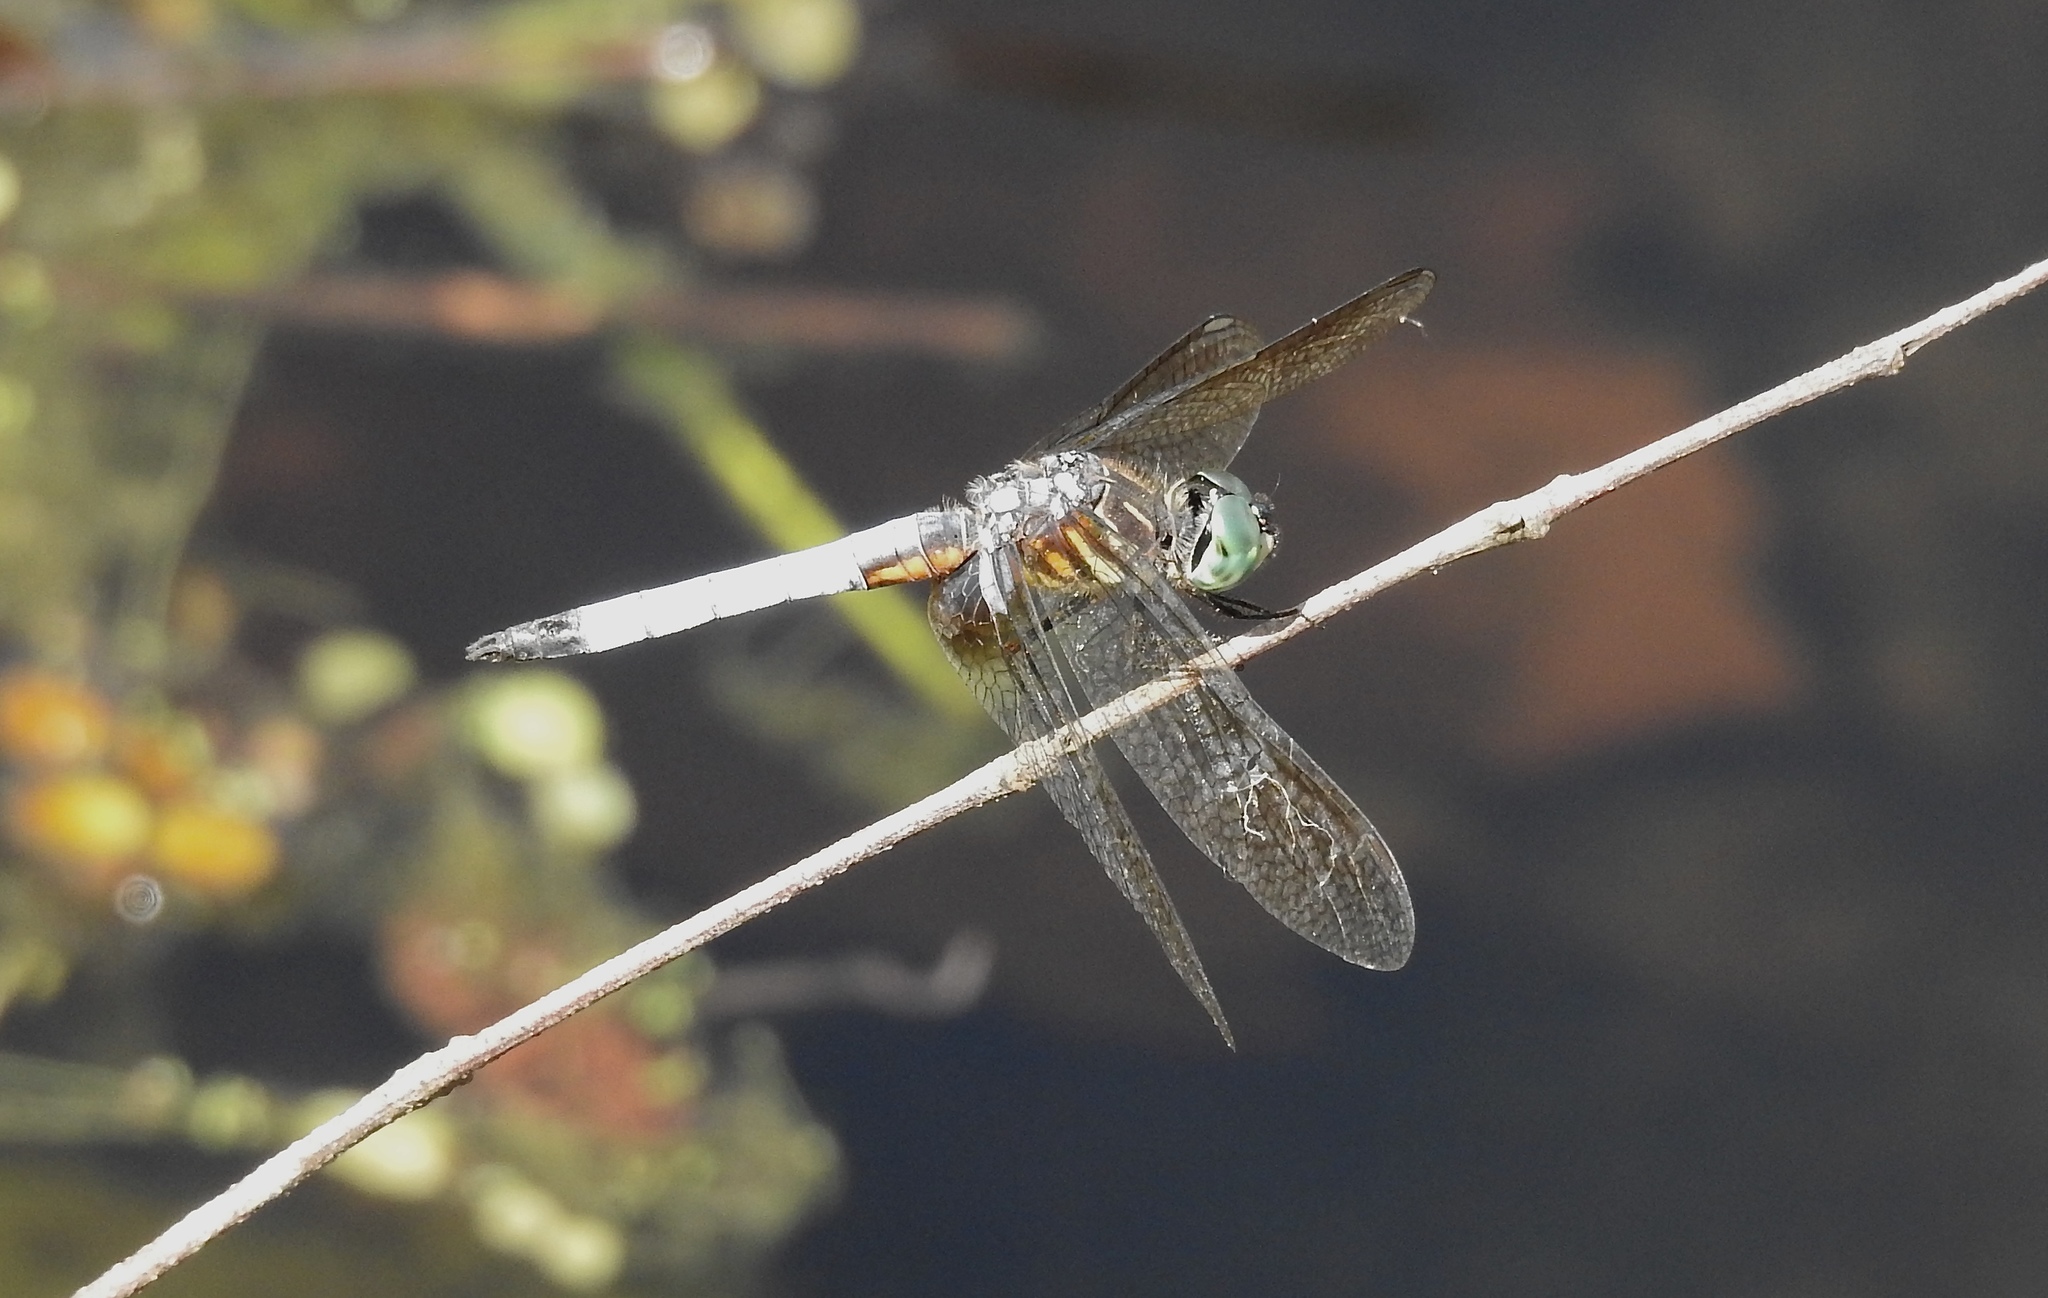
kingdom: Animalia
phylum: Arthropoda
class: Insecta
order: Odonata
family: Libellulidae
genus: Pachydiplax
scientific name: Pachydiplax longipennis
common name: Blue dasher
